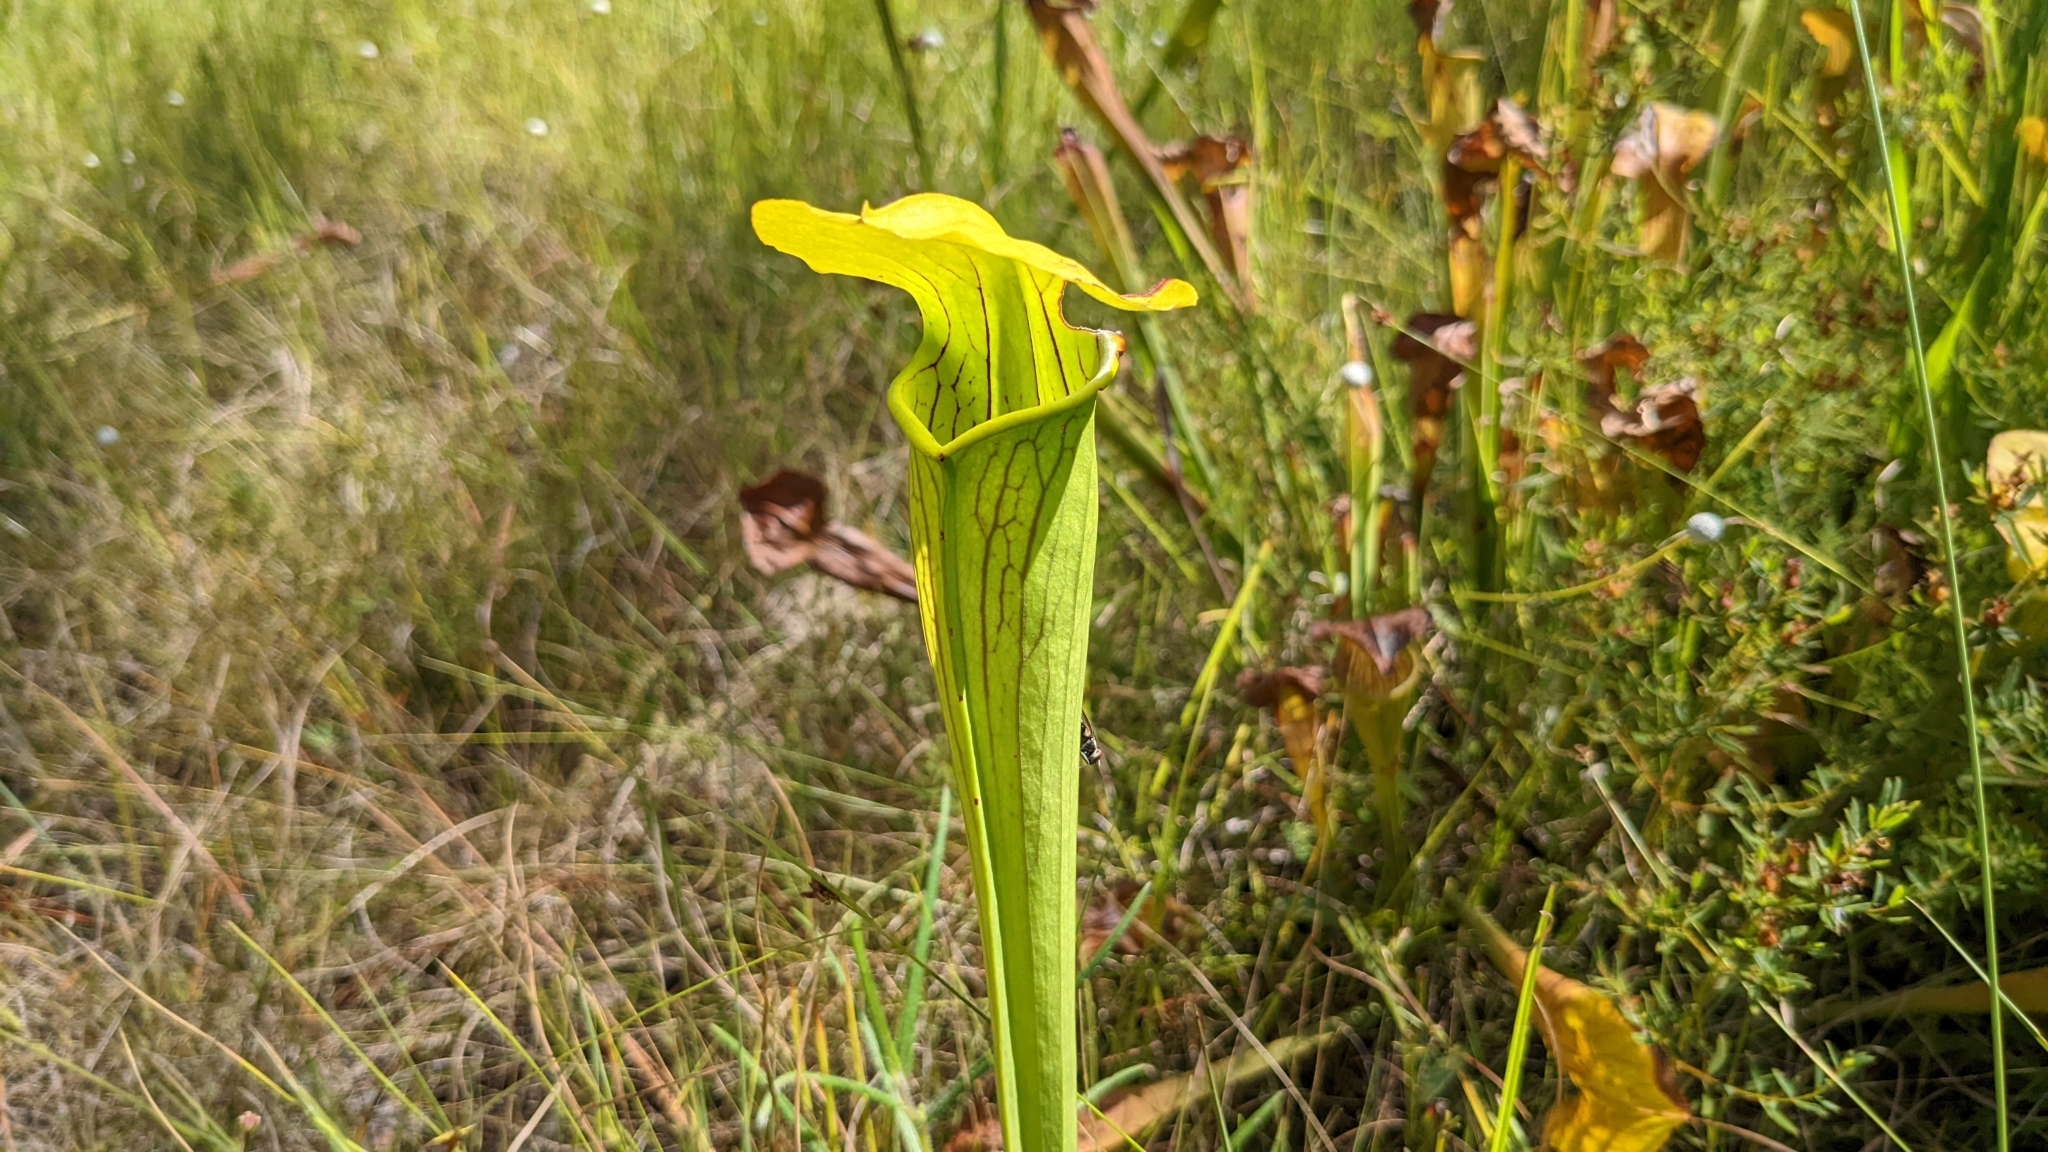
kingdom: Plantae
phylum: Tracheophyta
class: Magnoliopsida
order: Ericales
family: Sarraceniaceae
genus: Sarracenia
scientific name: Sarracenia alata
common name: Yellow trumpets
